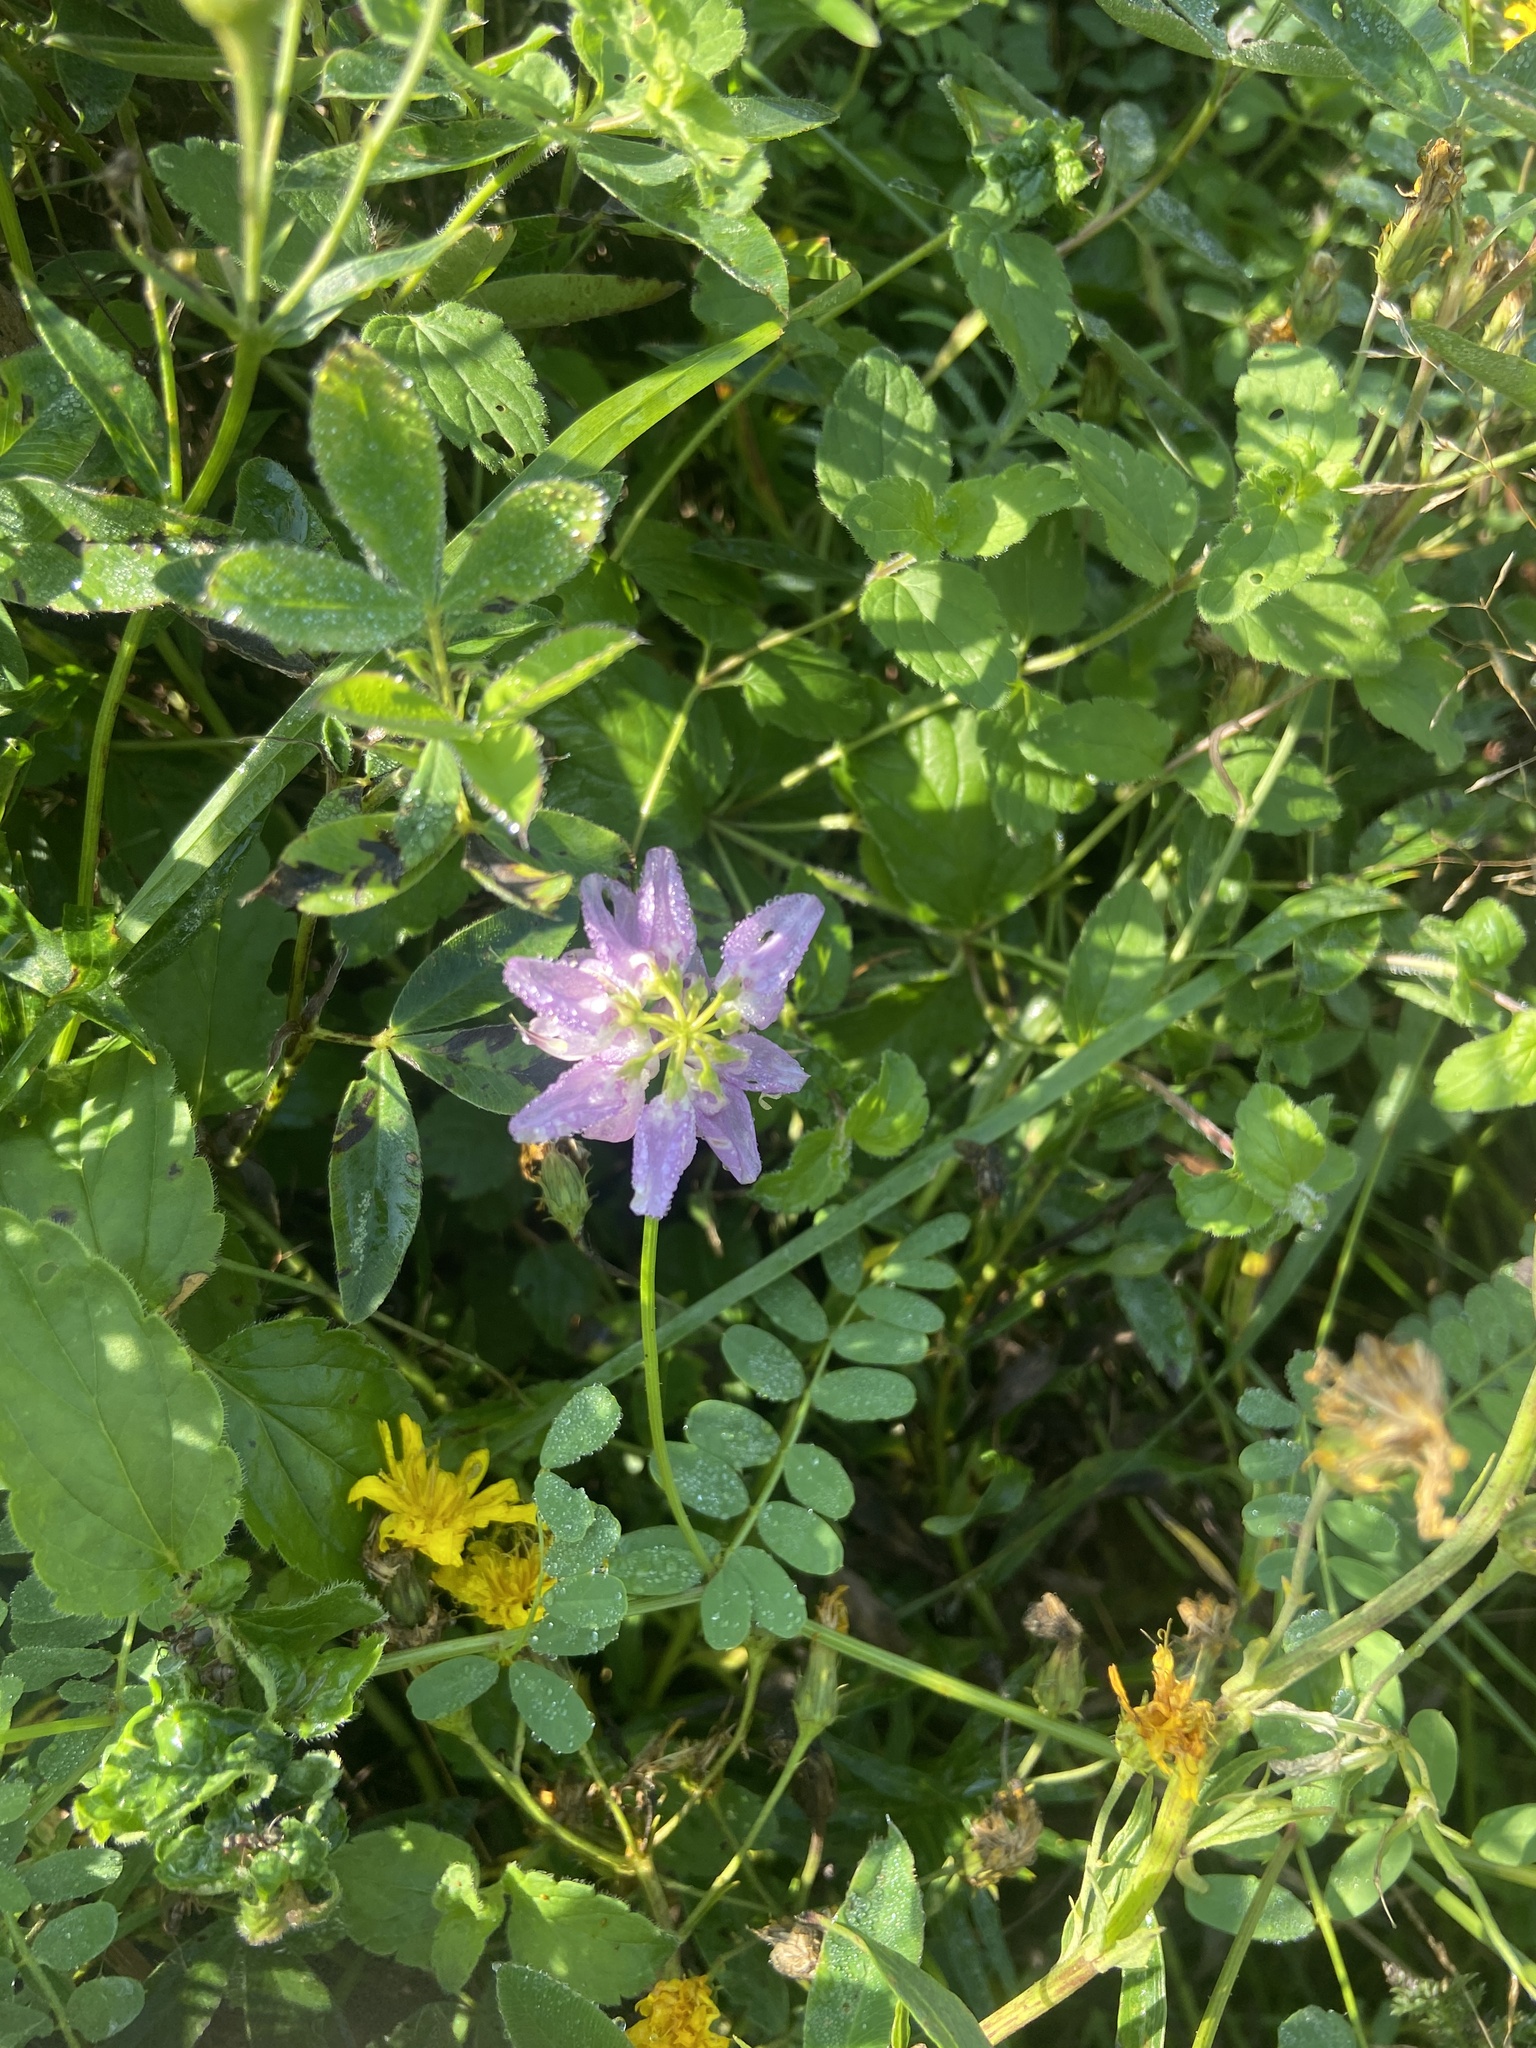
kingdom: Plantae
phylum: Tracheophyta
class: Magnoliopsida
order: Fabales
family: Fabaceae
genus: Coronilla
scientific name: Coronilla varia
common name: Crownvetch
